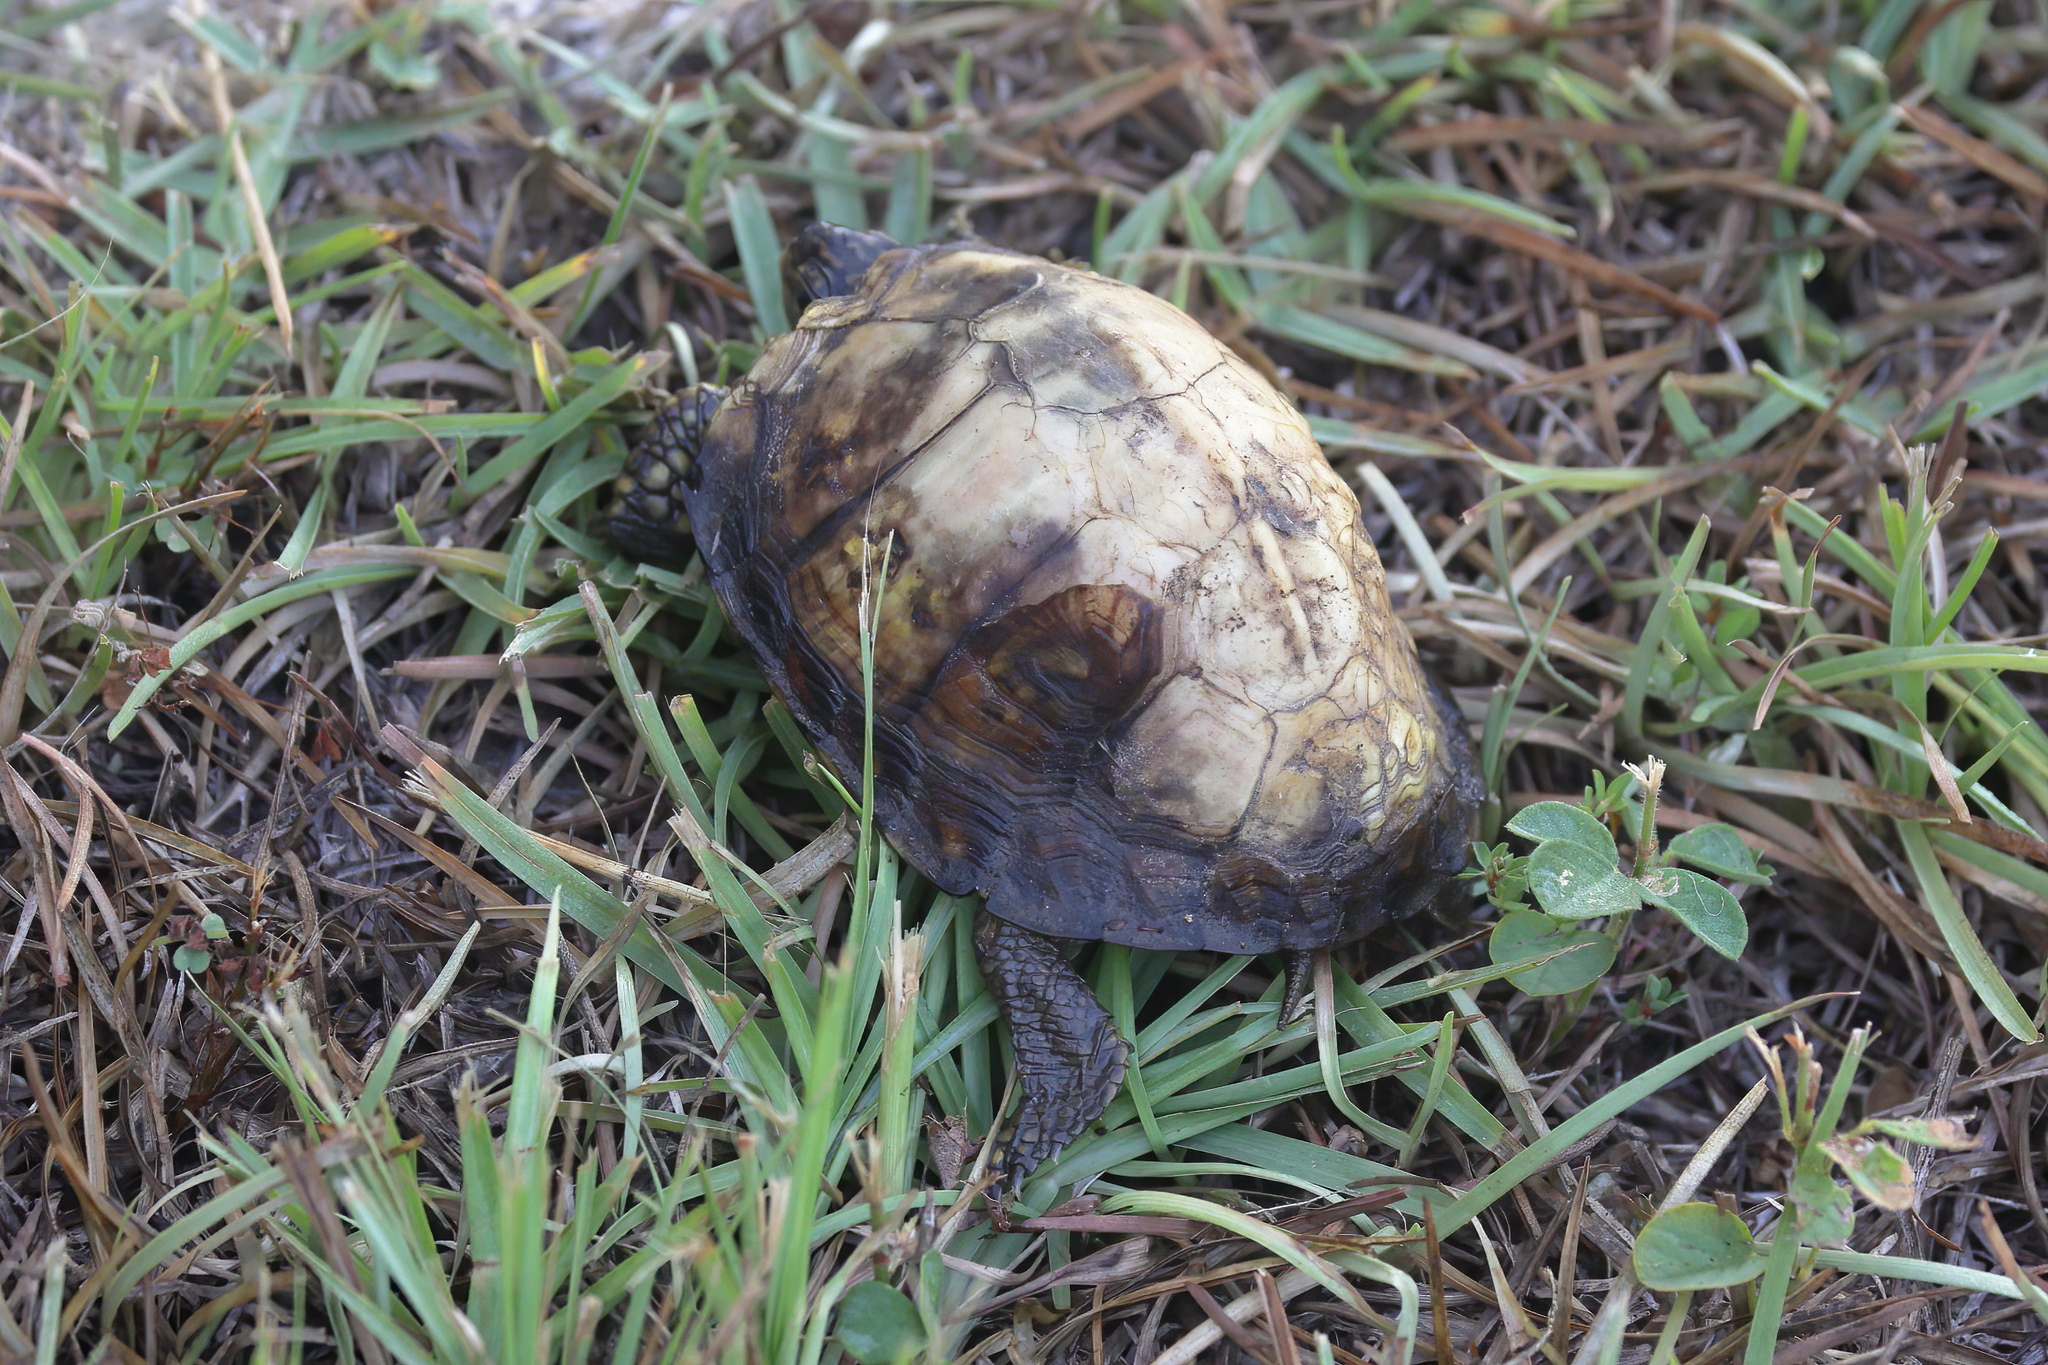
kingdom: Animalia
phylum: Chordata
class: Testudines
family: Emydidae
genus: Terrapene
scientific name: Terrapene carolina
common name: Common box turtle
